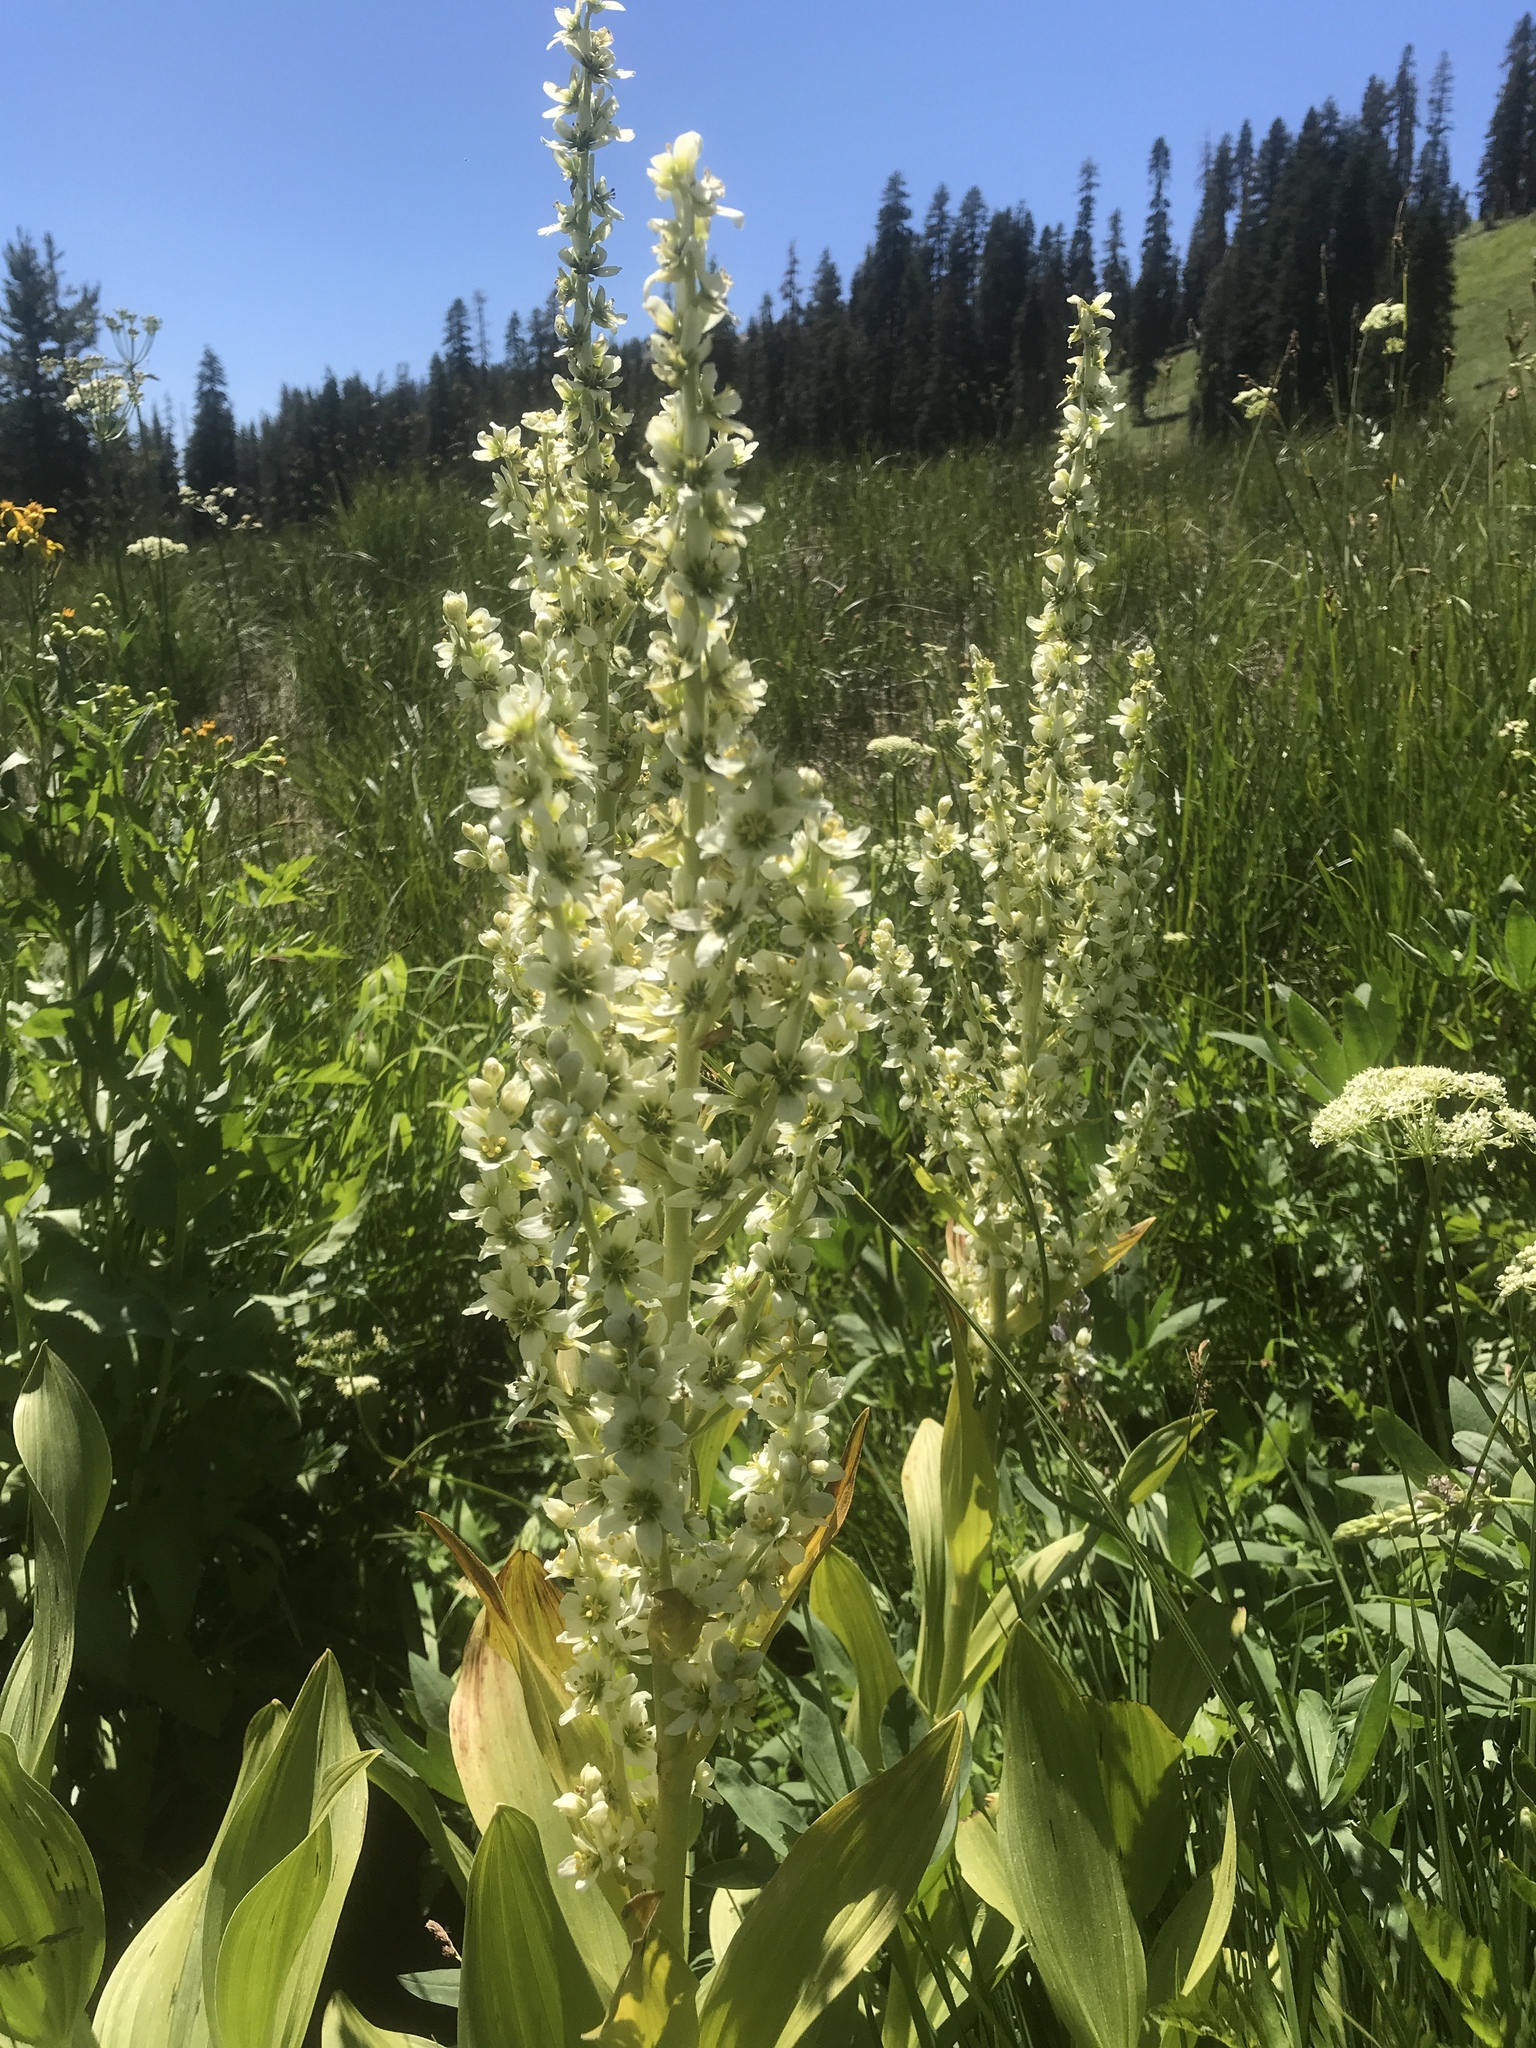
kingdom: Plantae
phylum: Tracheophyta
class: Liliopsida
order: Liliales
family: Melanthiaceae
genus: Veratrum
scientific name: Veratrum californicum
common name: California veratrum
